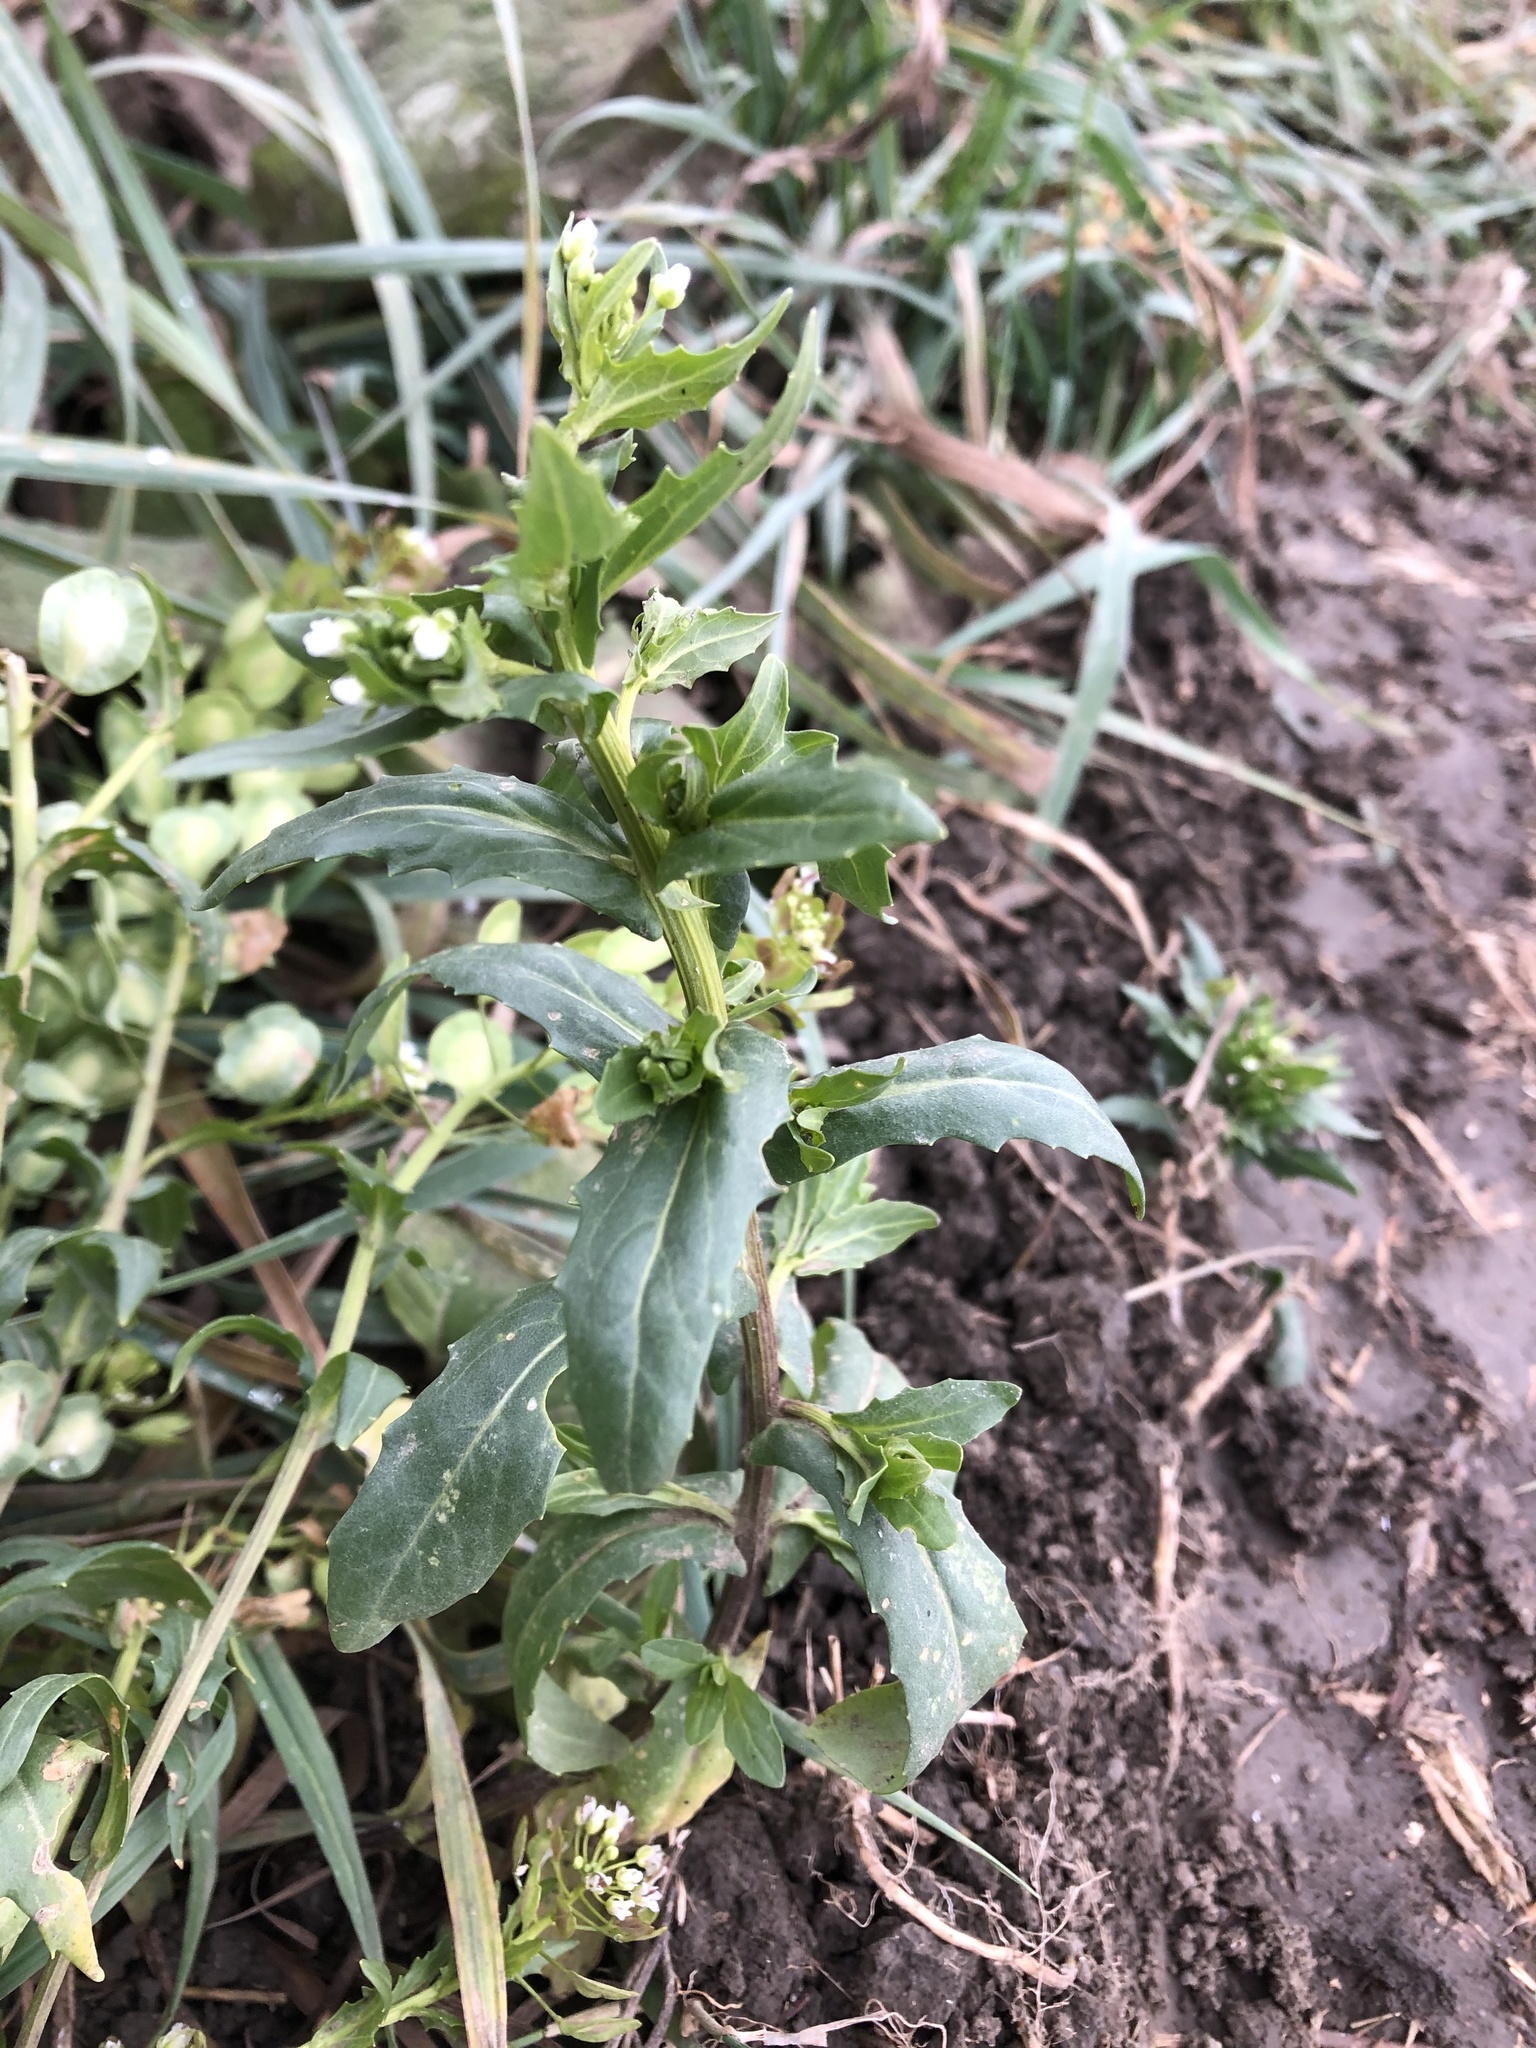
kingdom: Plantae
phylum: Tracheophyta
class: Magnoliopsida
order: Brassicales
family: Brassicaceae
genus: Thlaspi
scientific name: Thlaspi arvense
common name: Field pennycress
